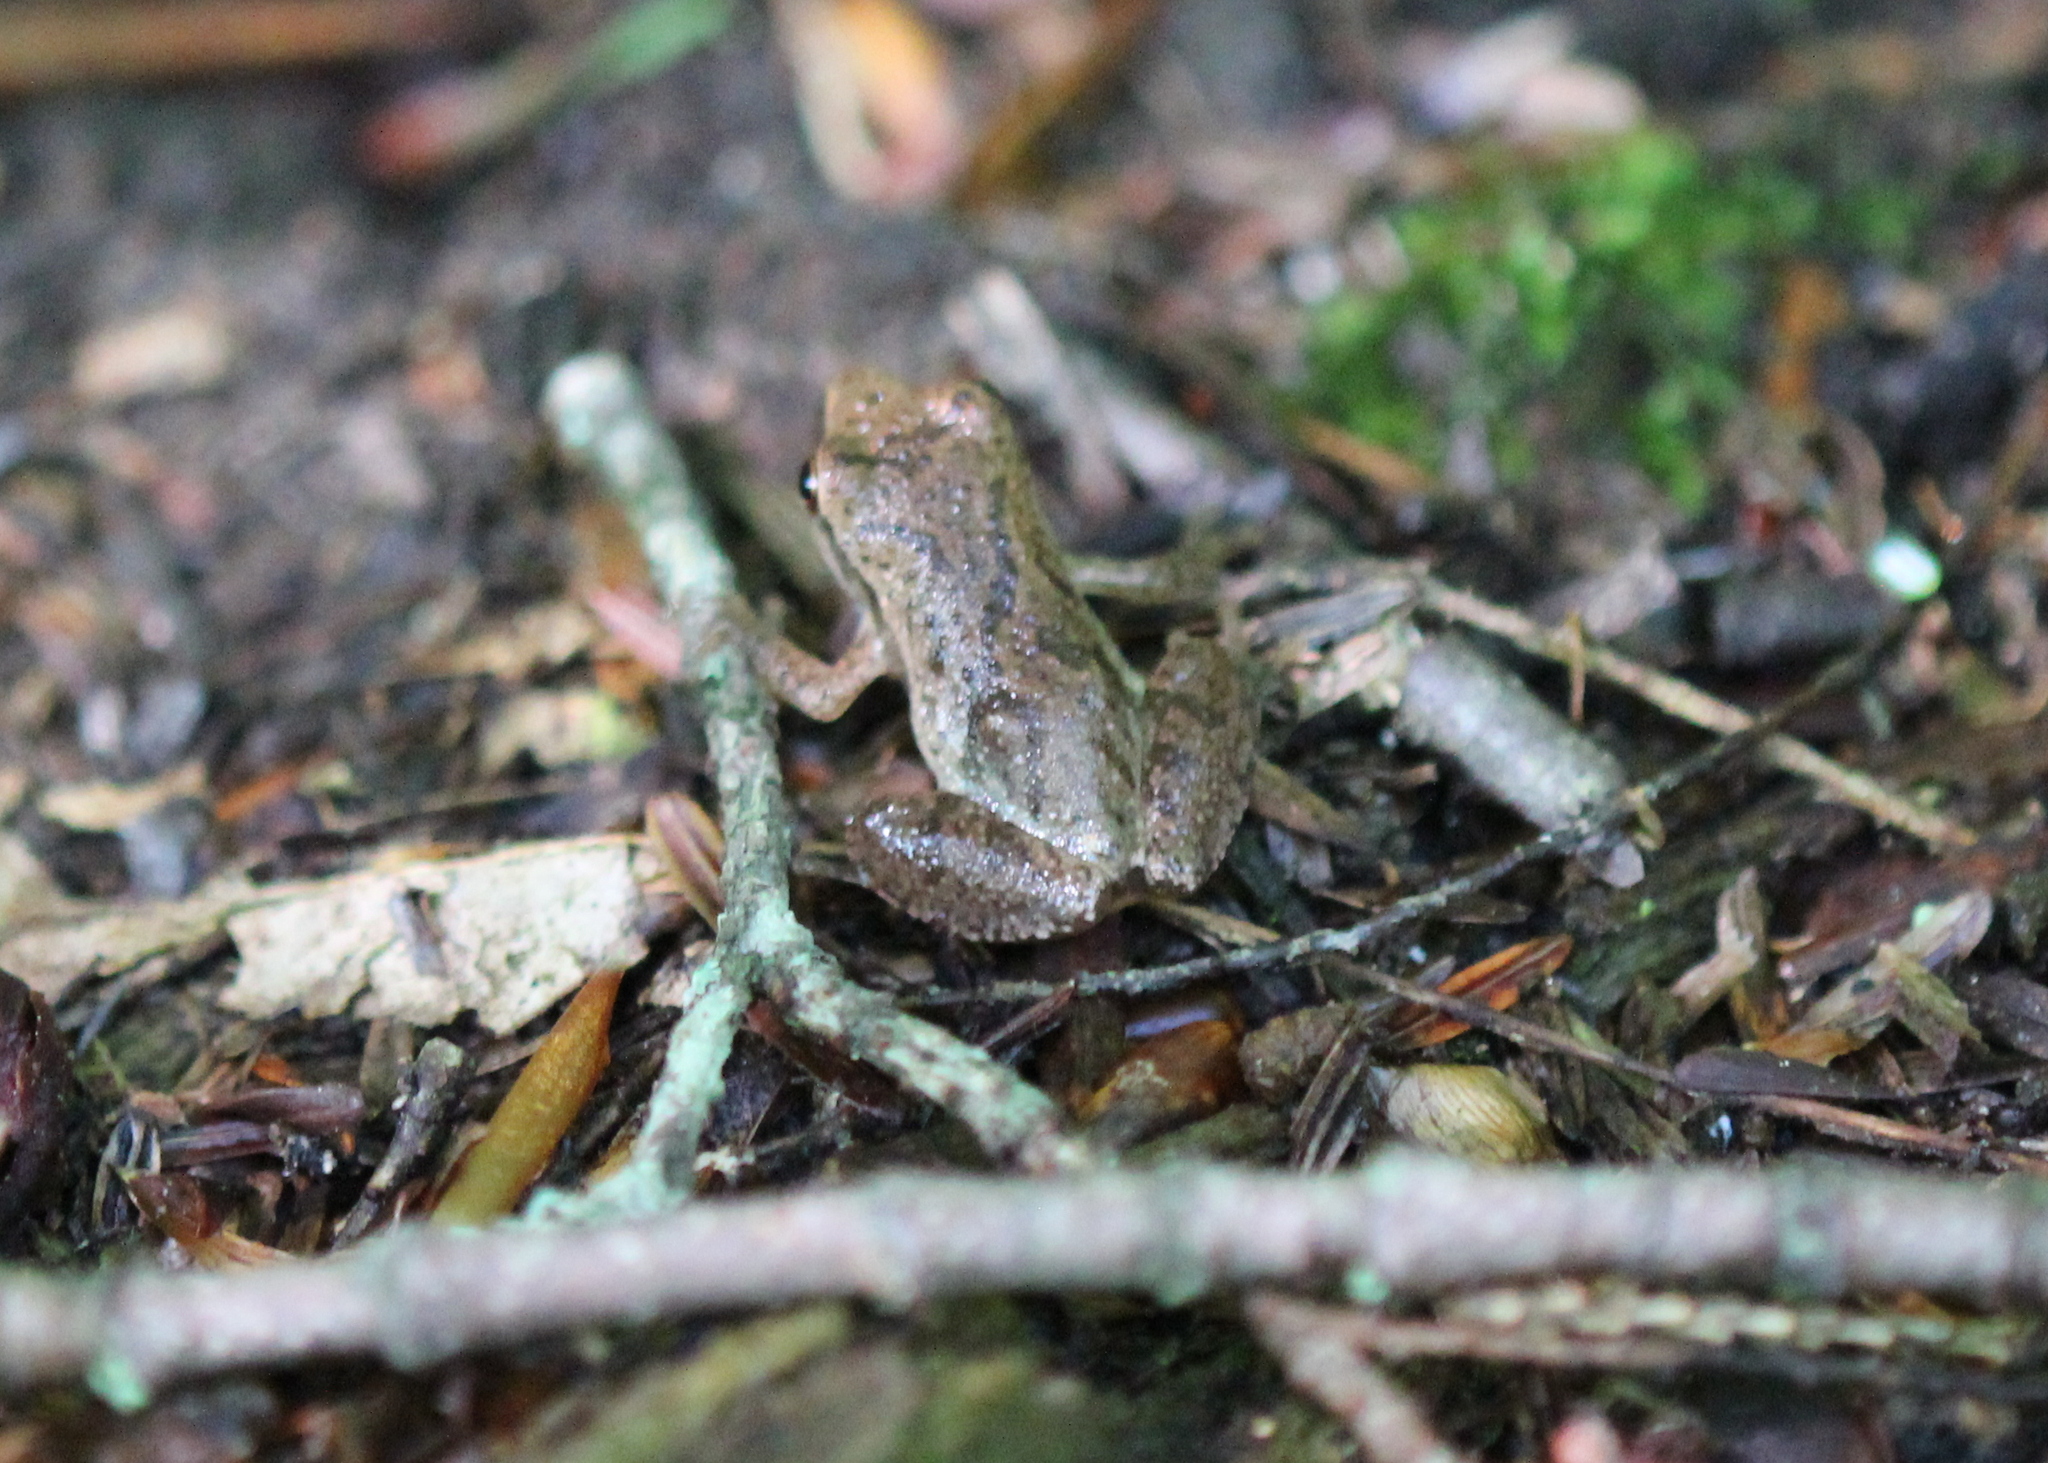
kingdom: Animalia
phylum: Chordata
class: Amphibia
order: Anura
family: Hylidae
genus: Pseudacris
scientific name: Pseudacris crucifer
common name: Spring peeper
